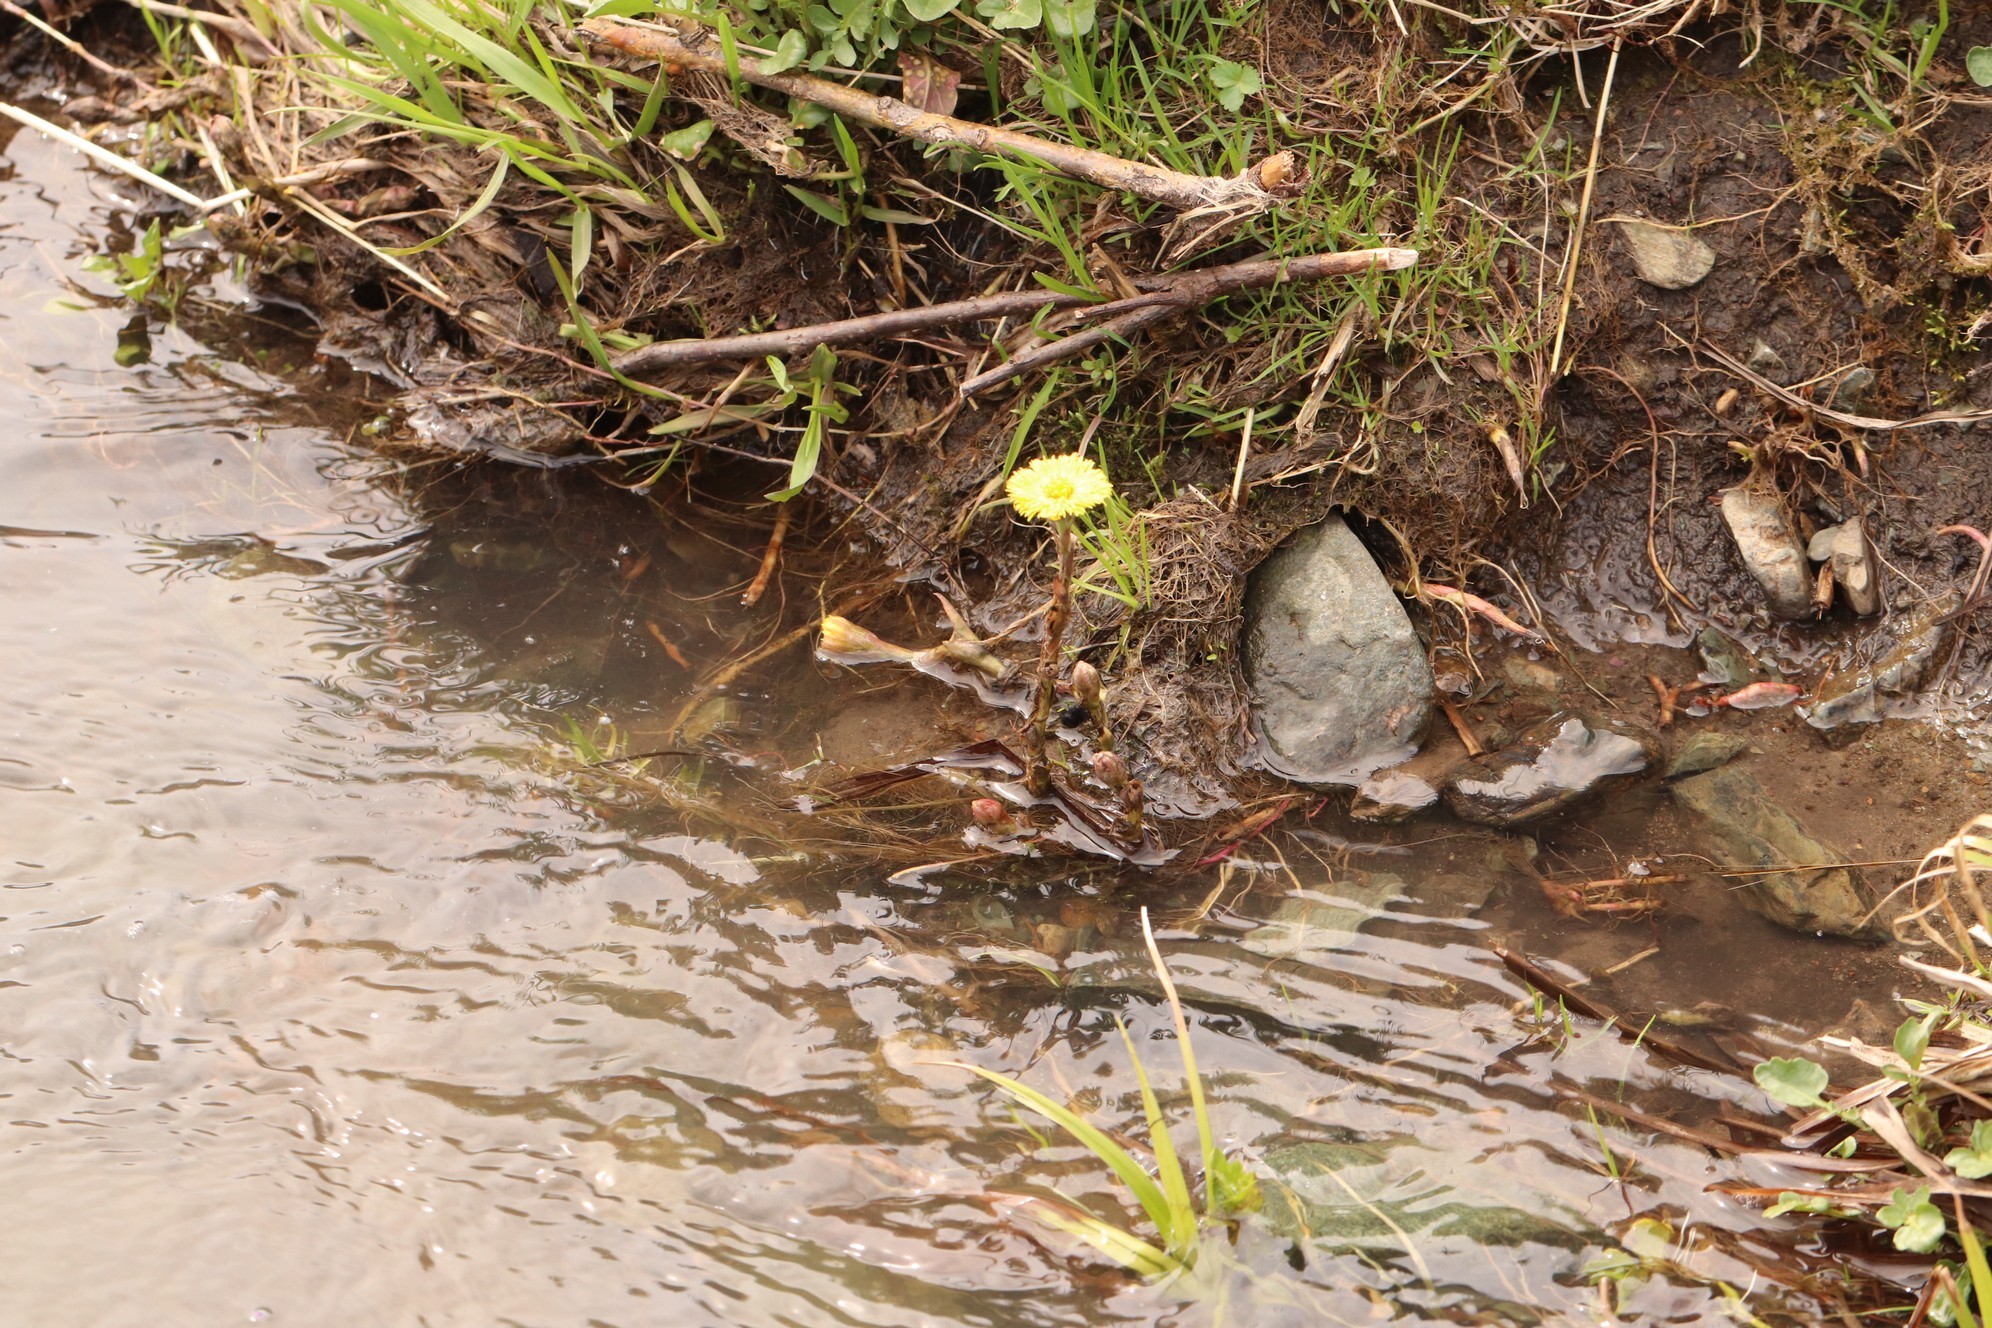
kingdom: Plantae
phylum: Tracheophyta
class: Magnoliopsida
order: Asterales
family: Asteraceae
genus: Tussilago
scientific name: Tussilago farfara
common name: Coltsfoot
